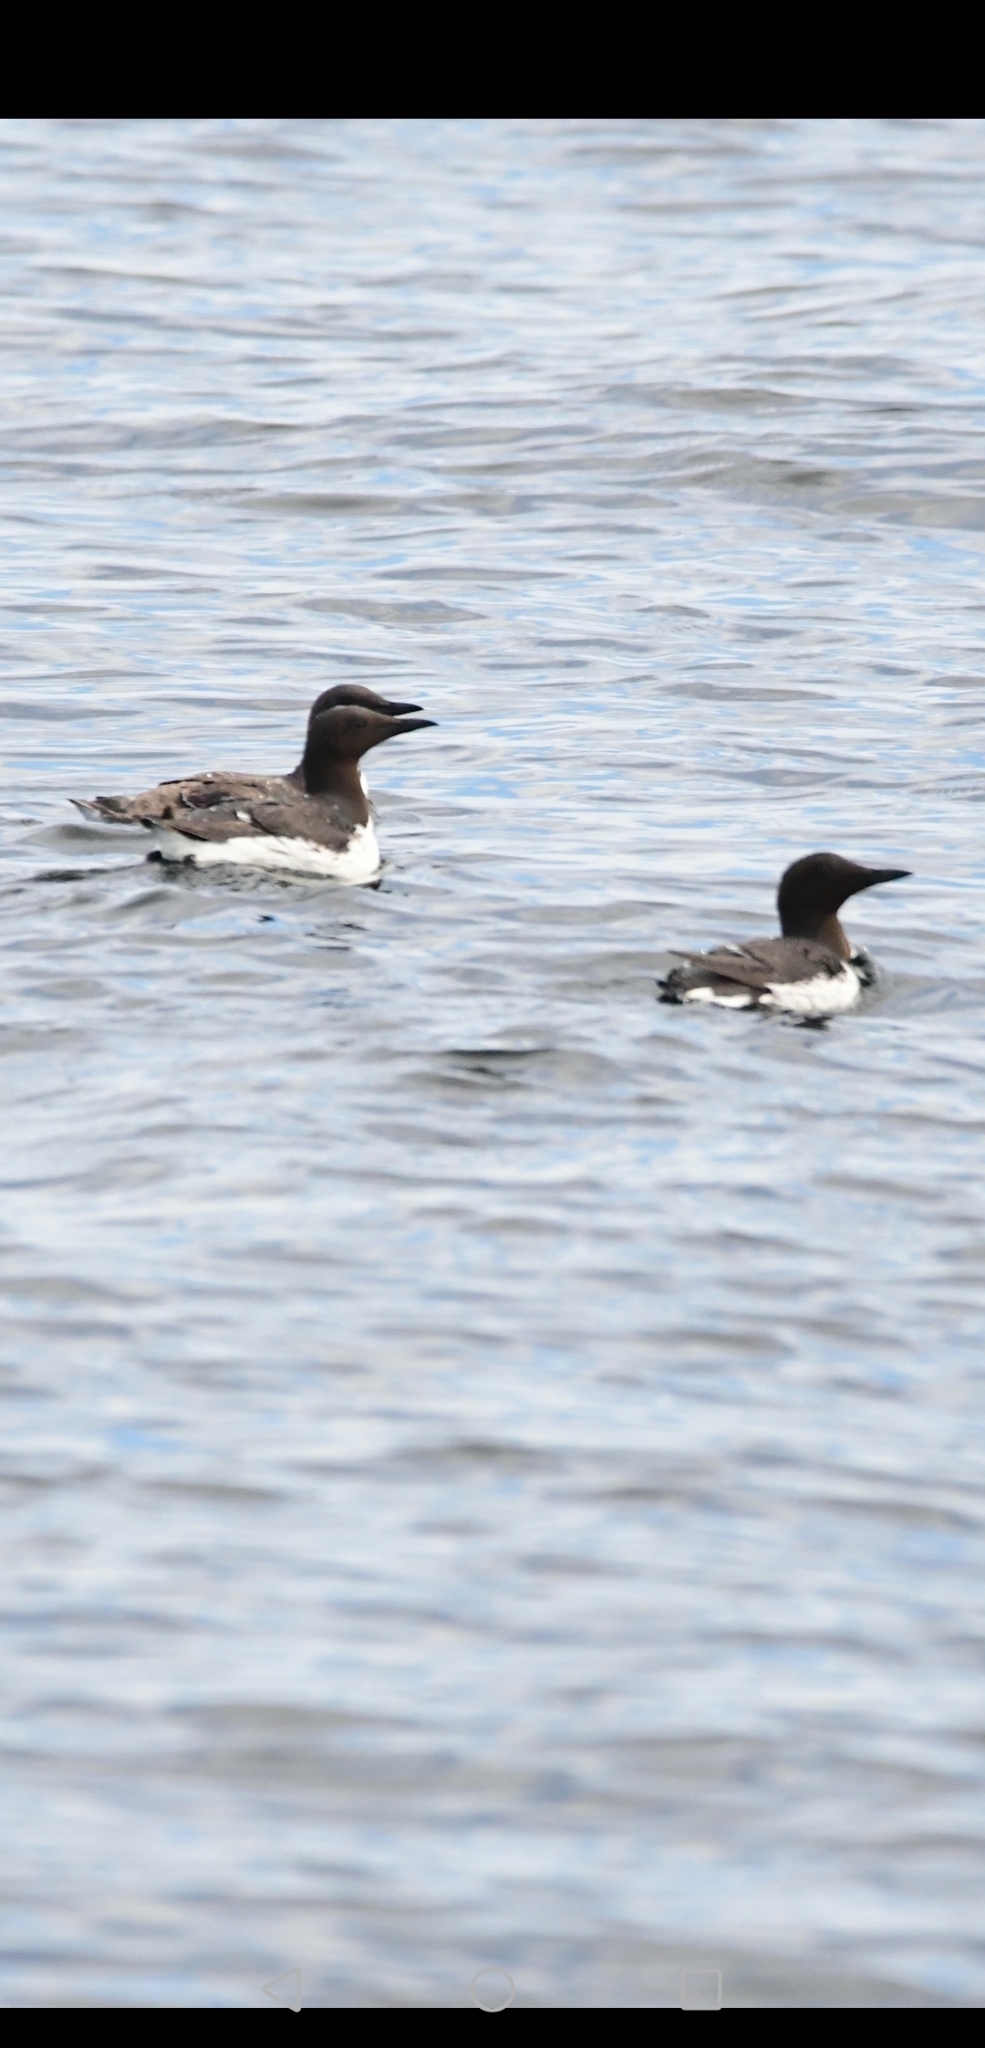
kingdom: Animalia
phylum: Chordata
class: Aves
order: Charadriiformes
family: Alcidae
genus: Uria
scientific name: Uria aalge
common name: Common murre
